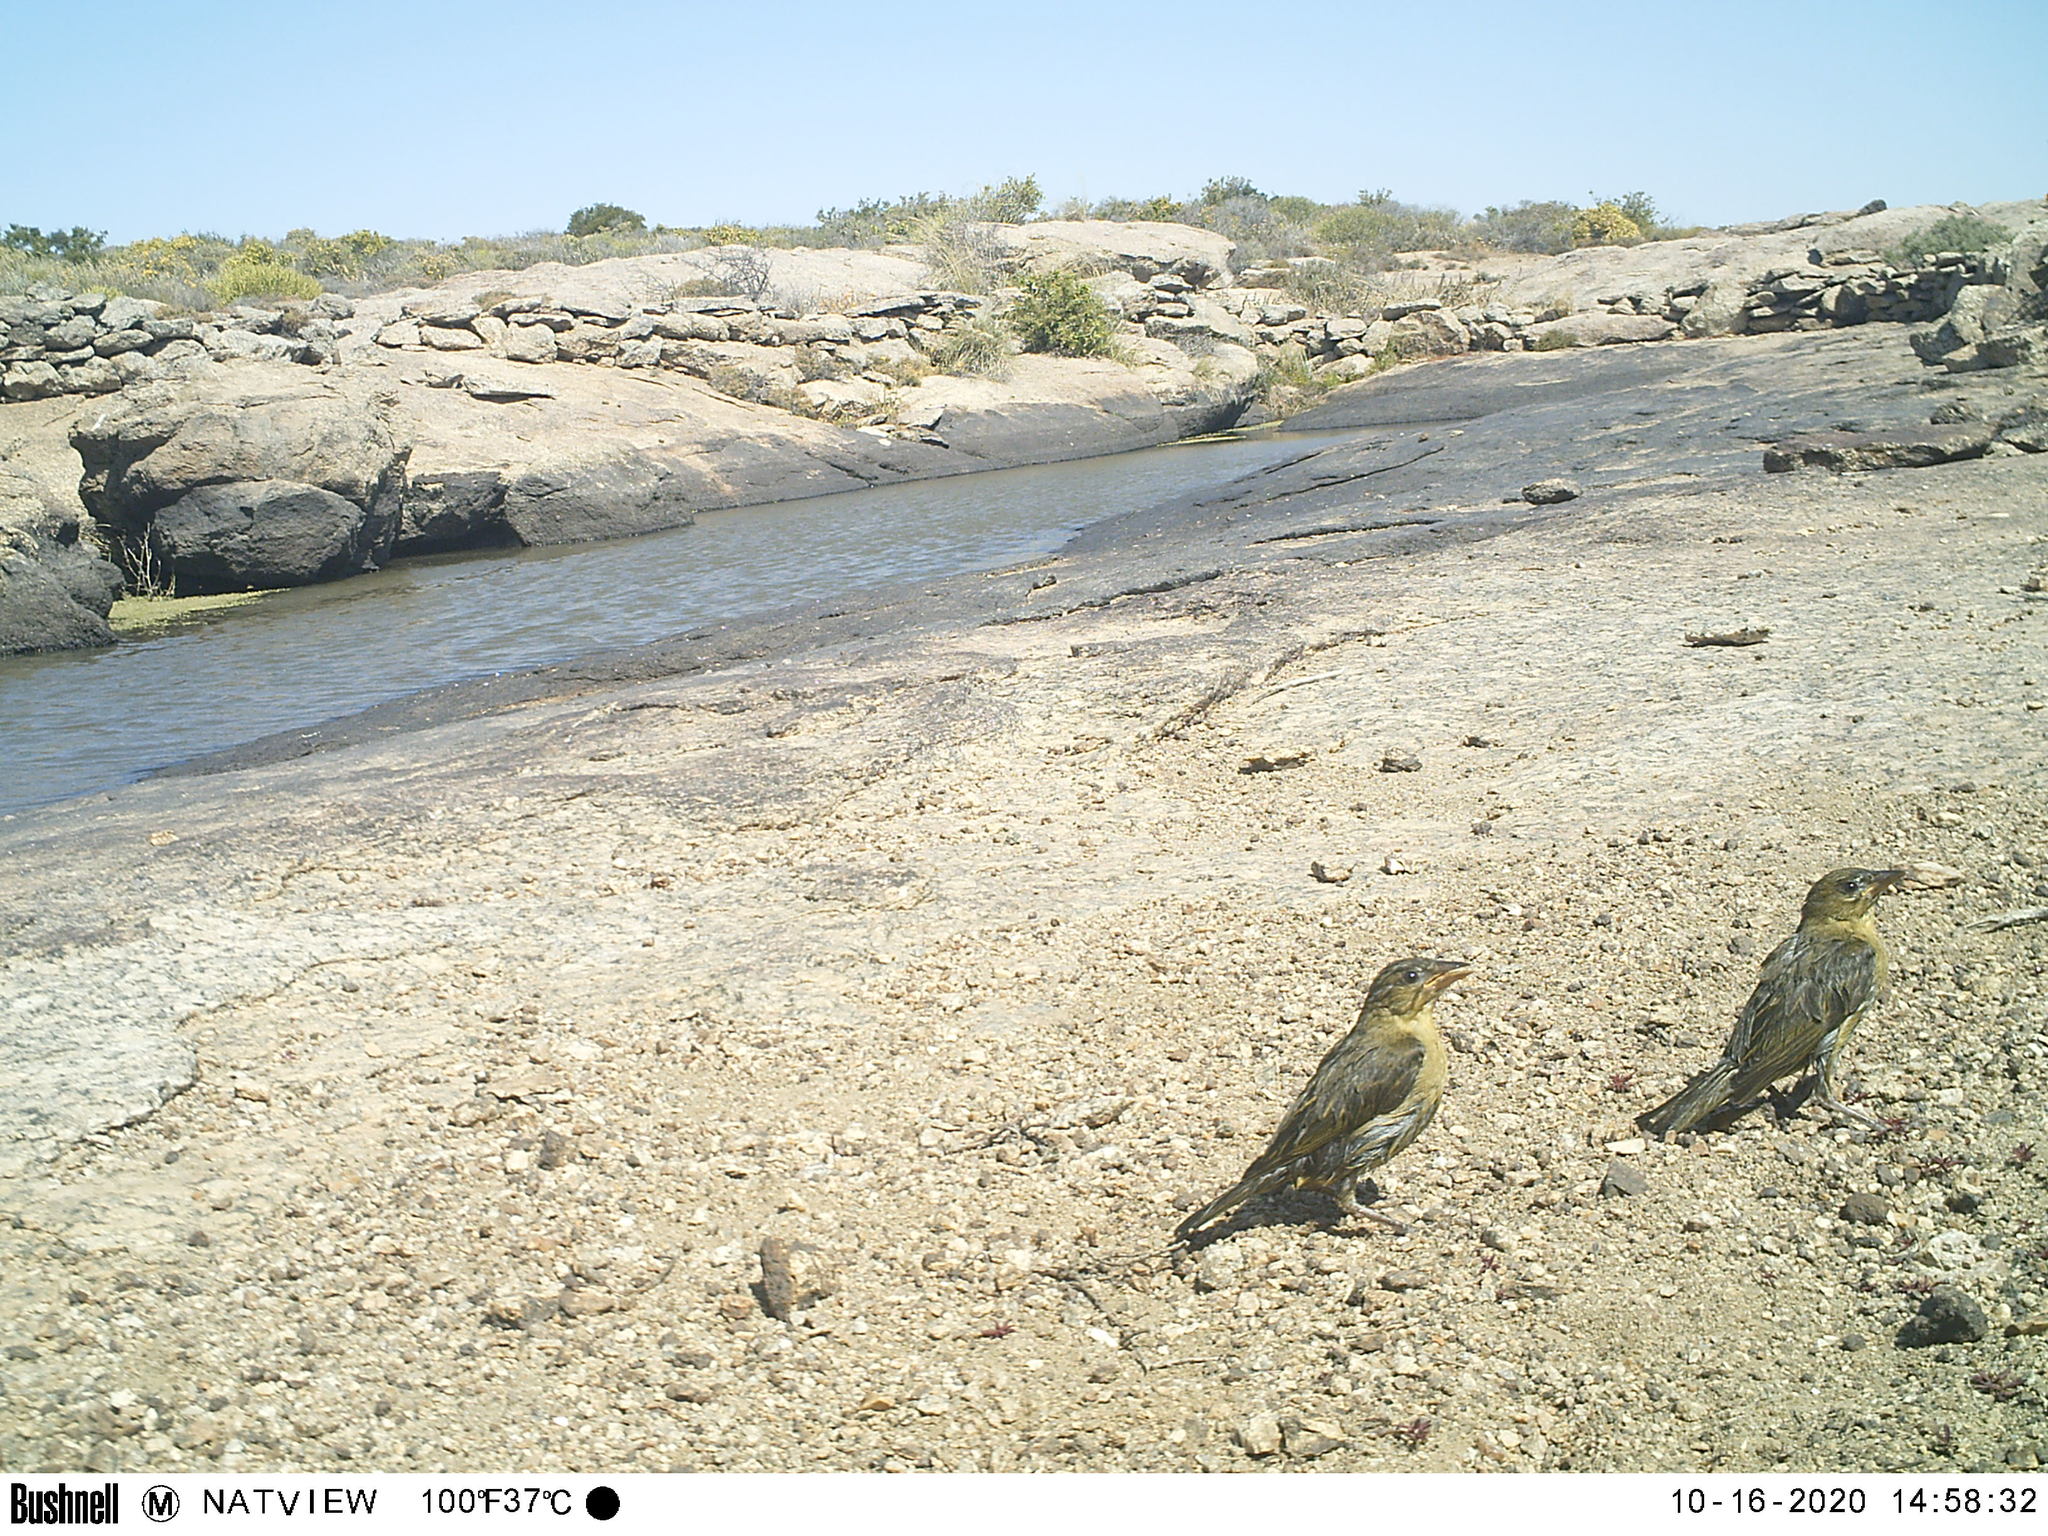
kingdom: Animalia
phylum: Chordata
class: Aves
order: Passeriformes
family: Ploceidae
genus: Ploceus
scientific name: Ploceus capensis
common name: Cape weaver
